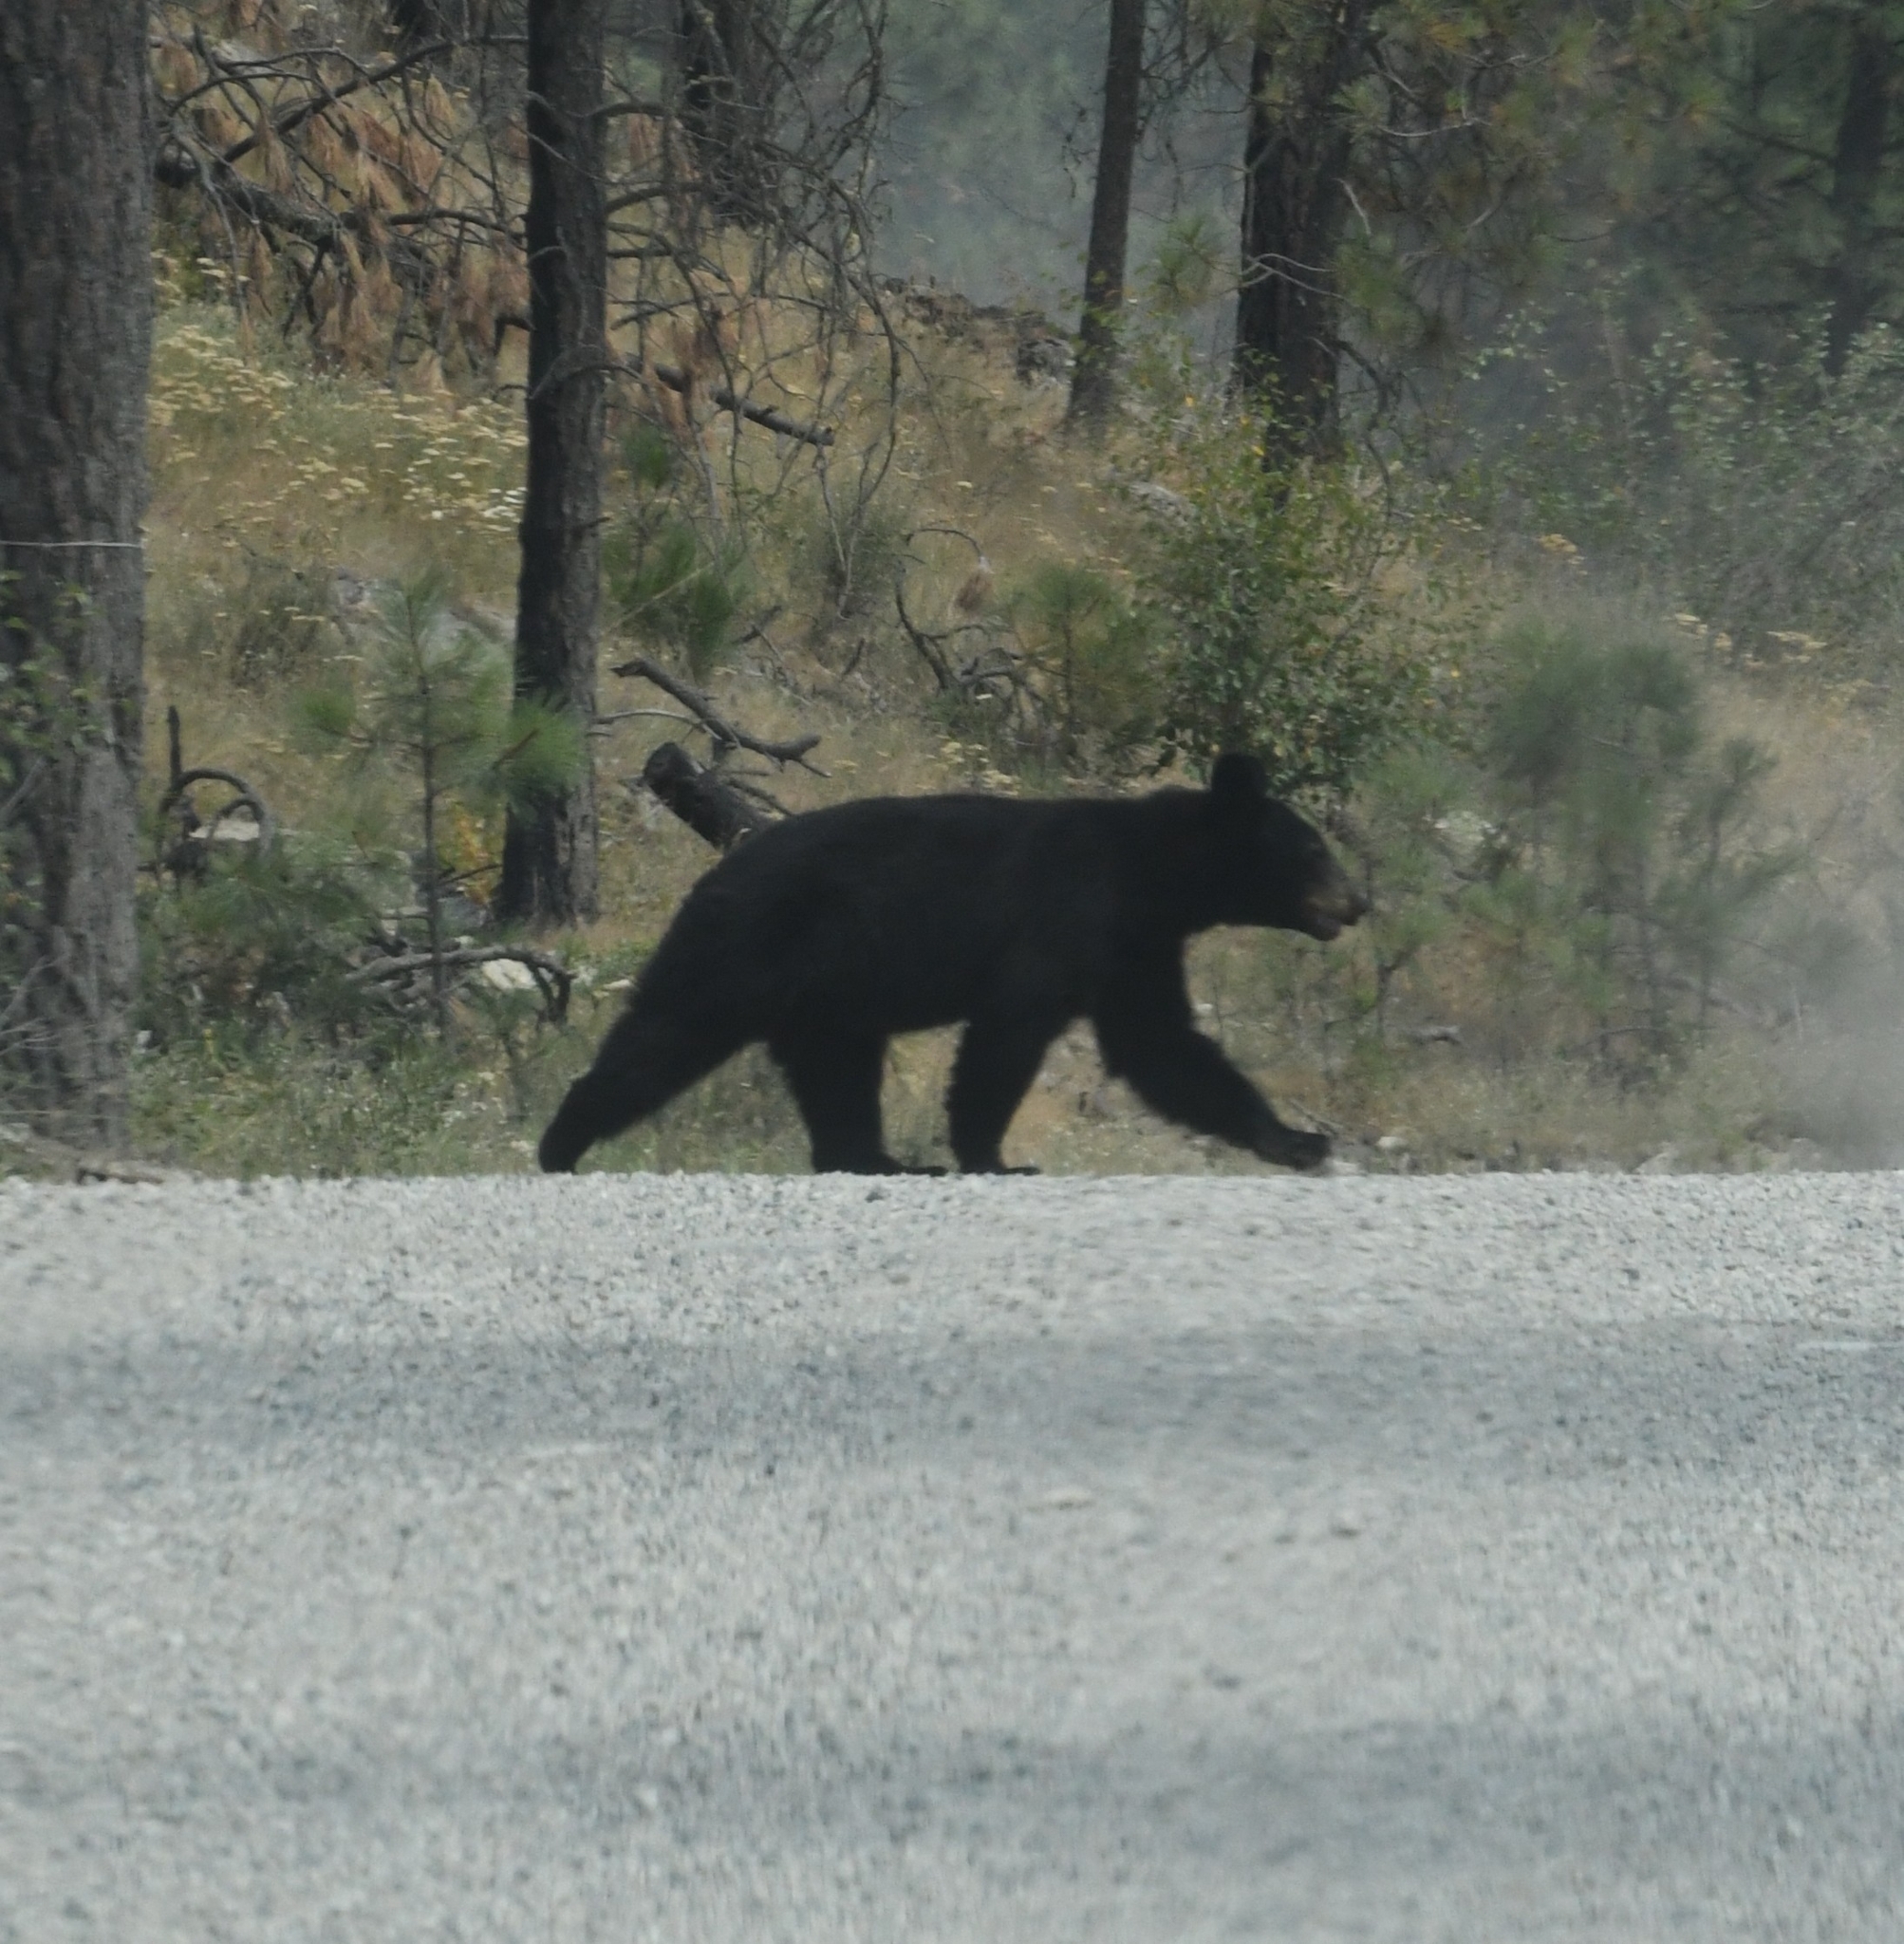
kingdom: Animalia
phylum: Chordata
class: Mammalia
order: Carnivora
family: Ursidae
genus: Ursus
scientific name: Ursus americanus
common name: American black bear
